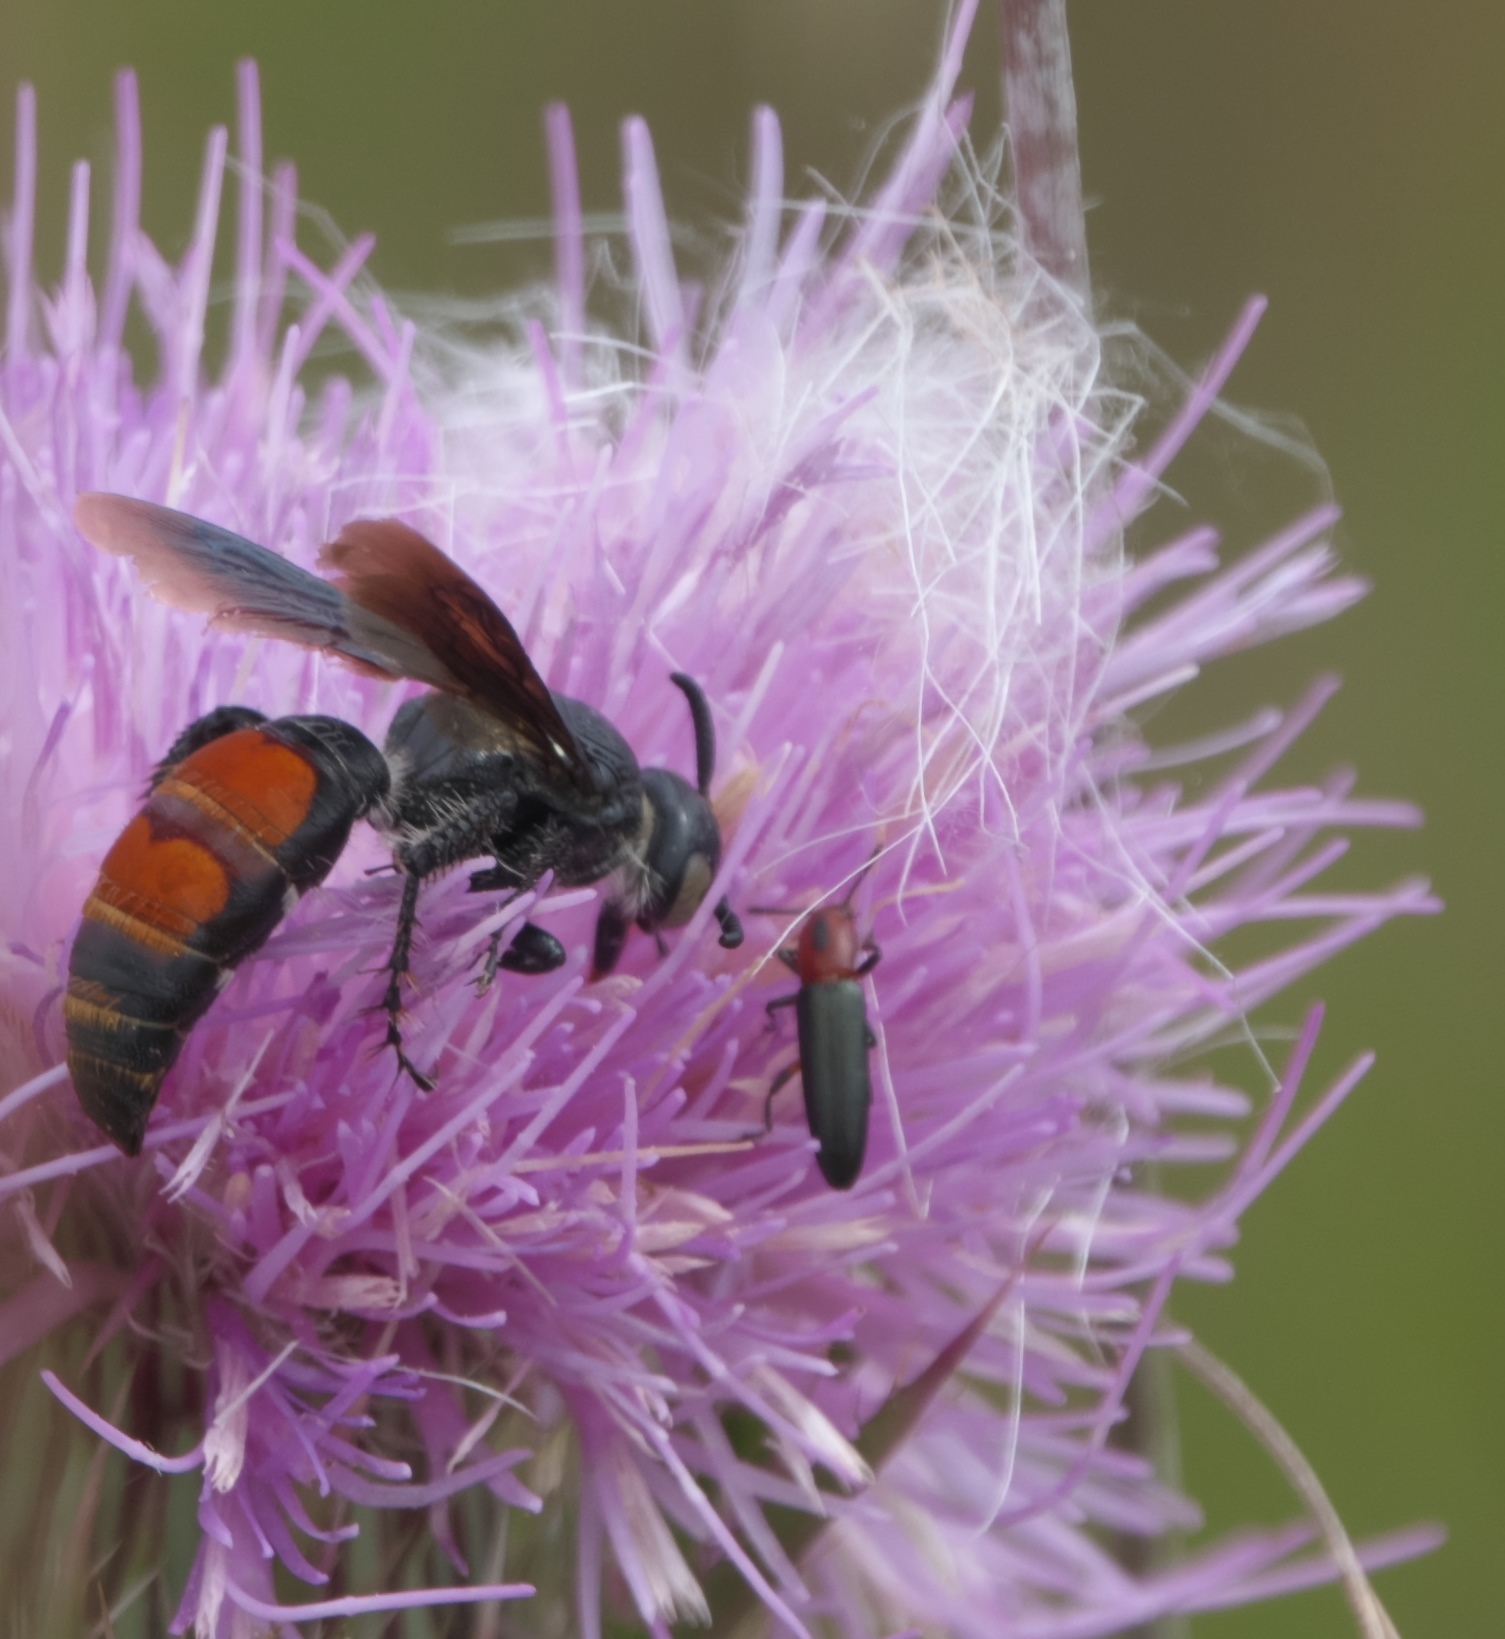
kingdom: Animalia
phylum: Arthropoda
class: Insecta
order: Coleoptera
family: Erotylidae
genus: Languria
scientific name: Languria discoidea
